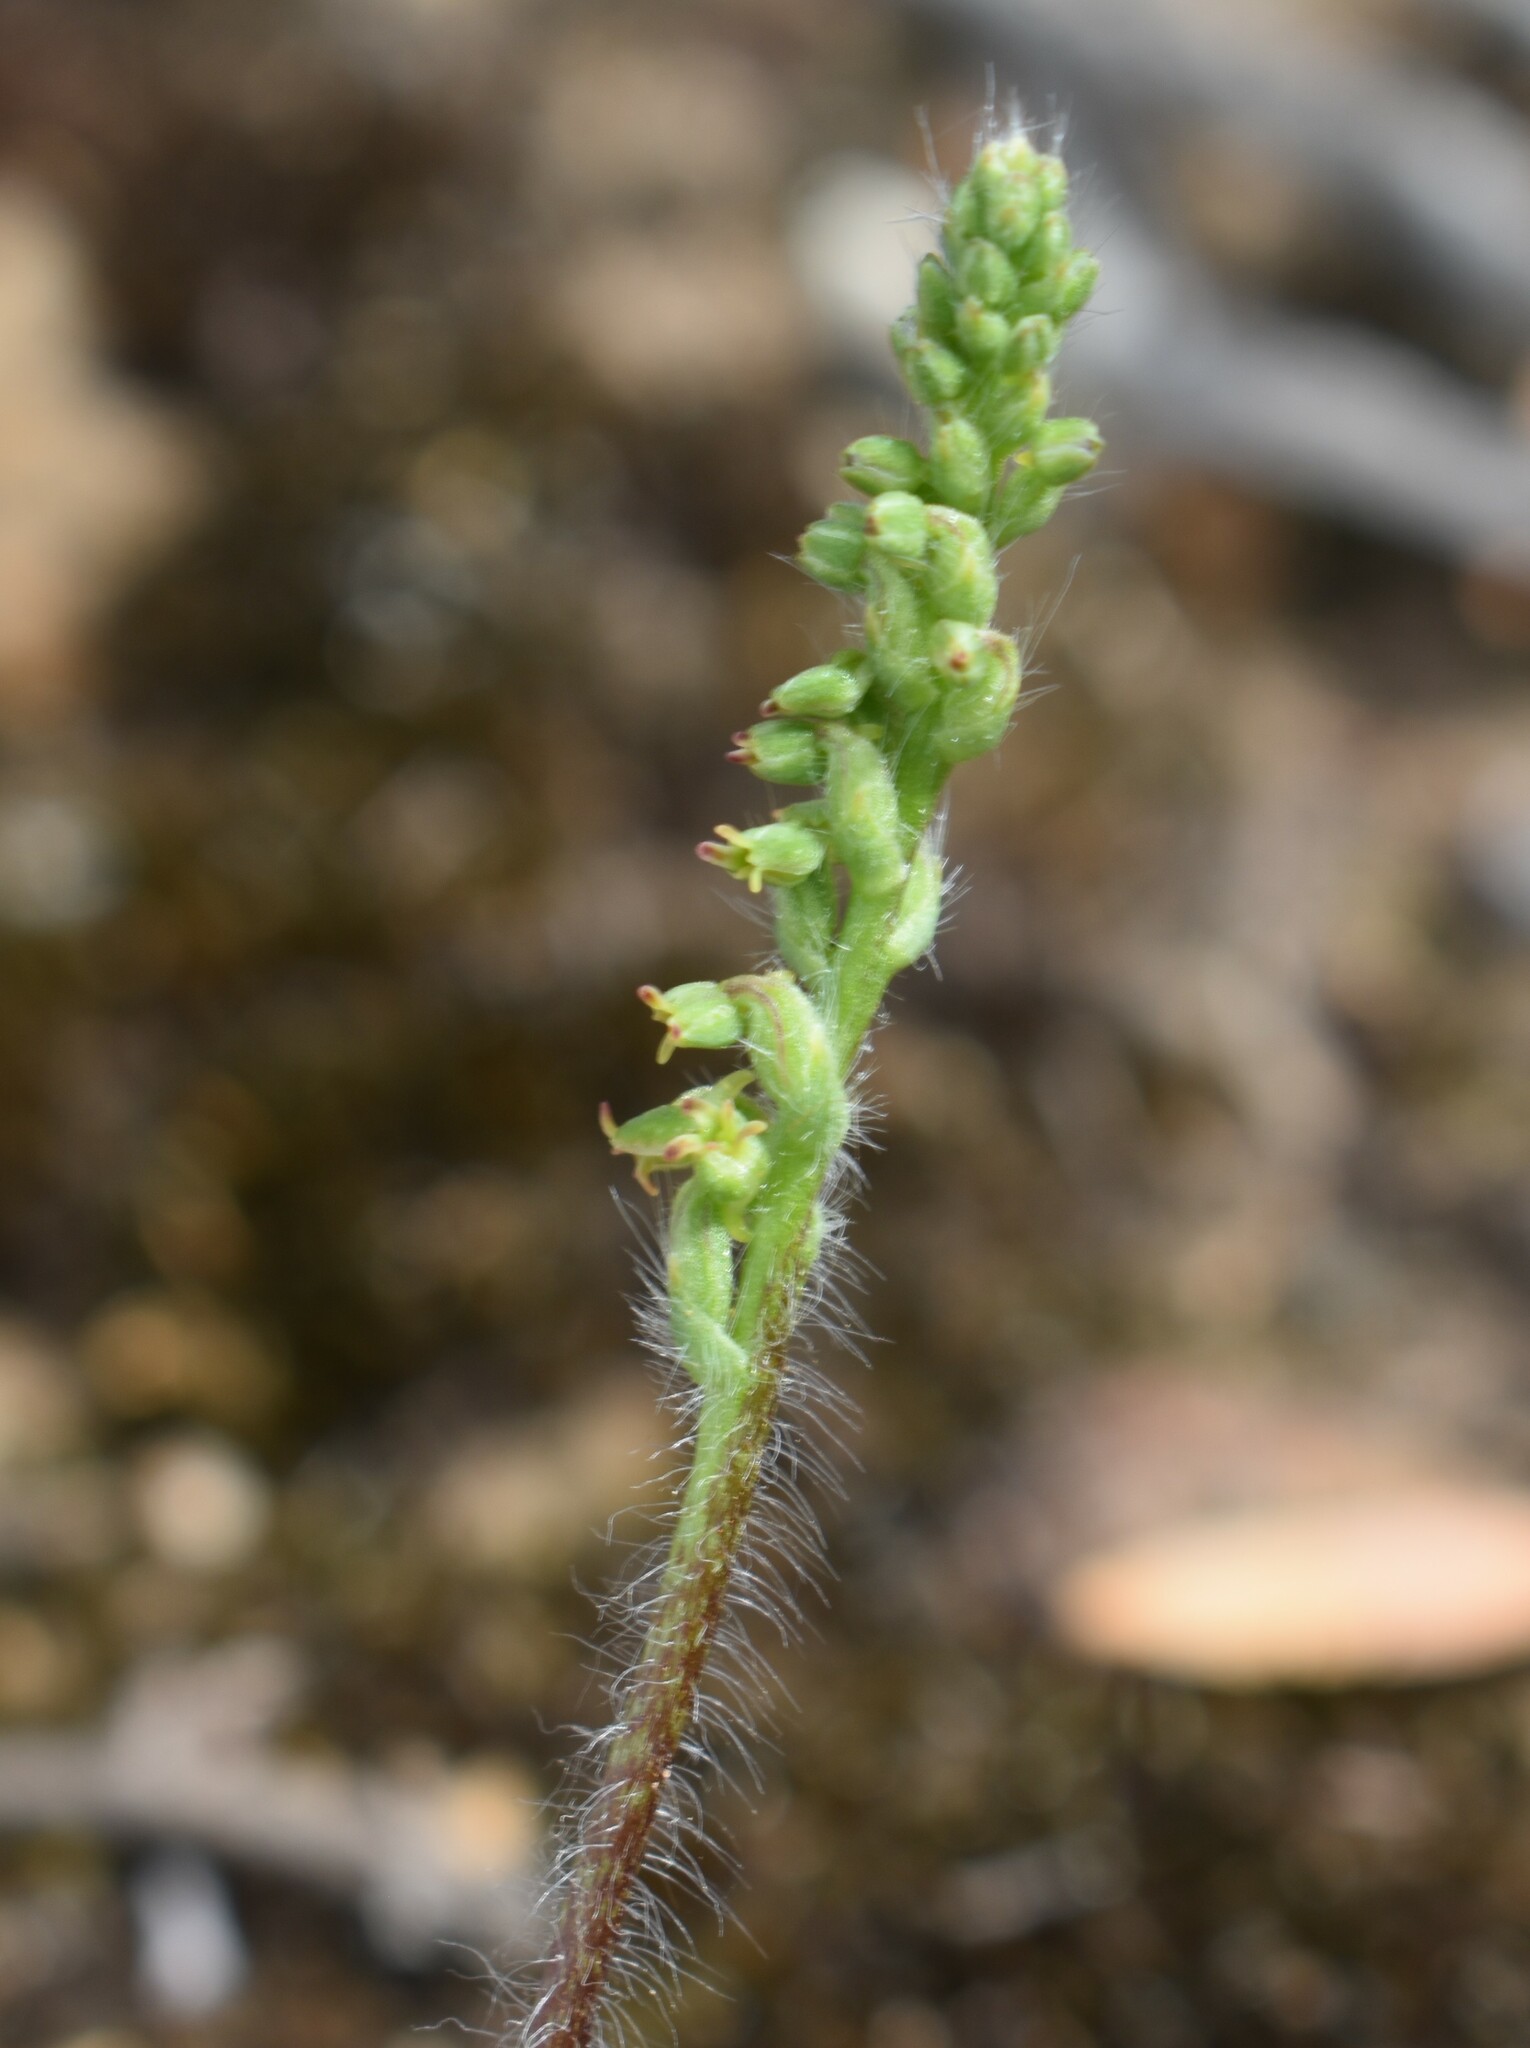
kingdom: Plantae
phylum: Tracheophyta
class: Liliopsida
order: Asparagales
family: Orchidaceae
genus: Holothrix
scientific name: Holothrix villosa
